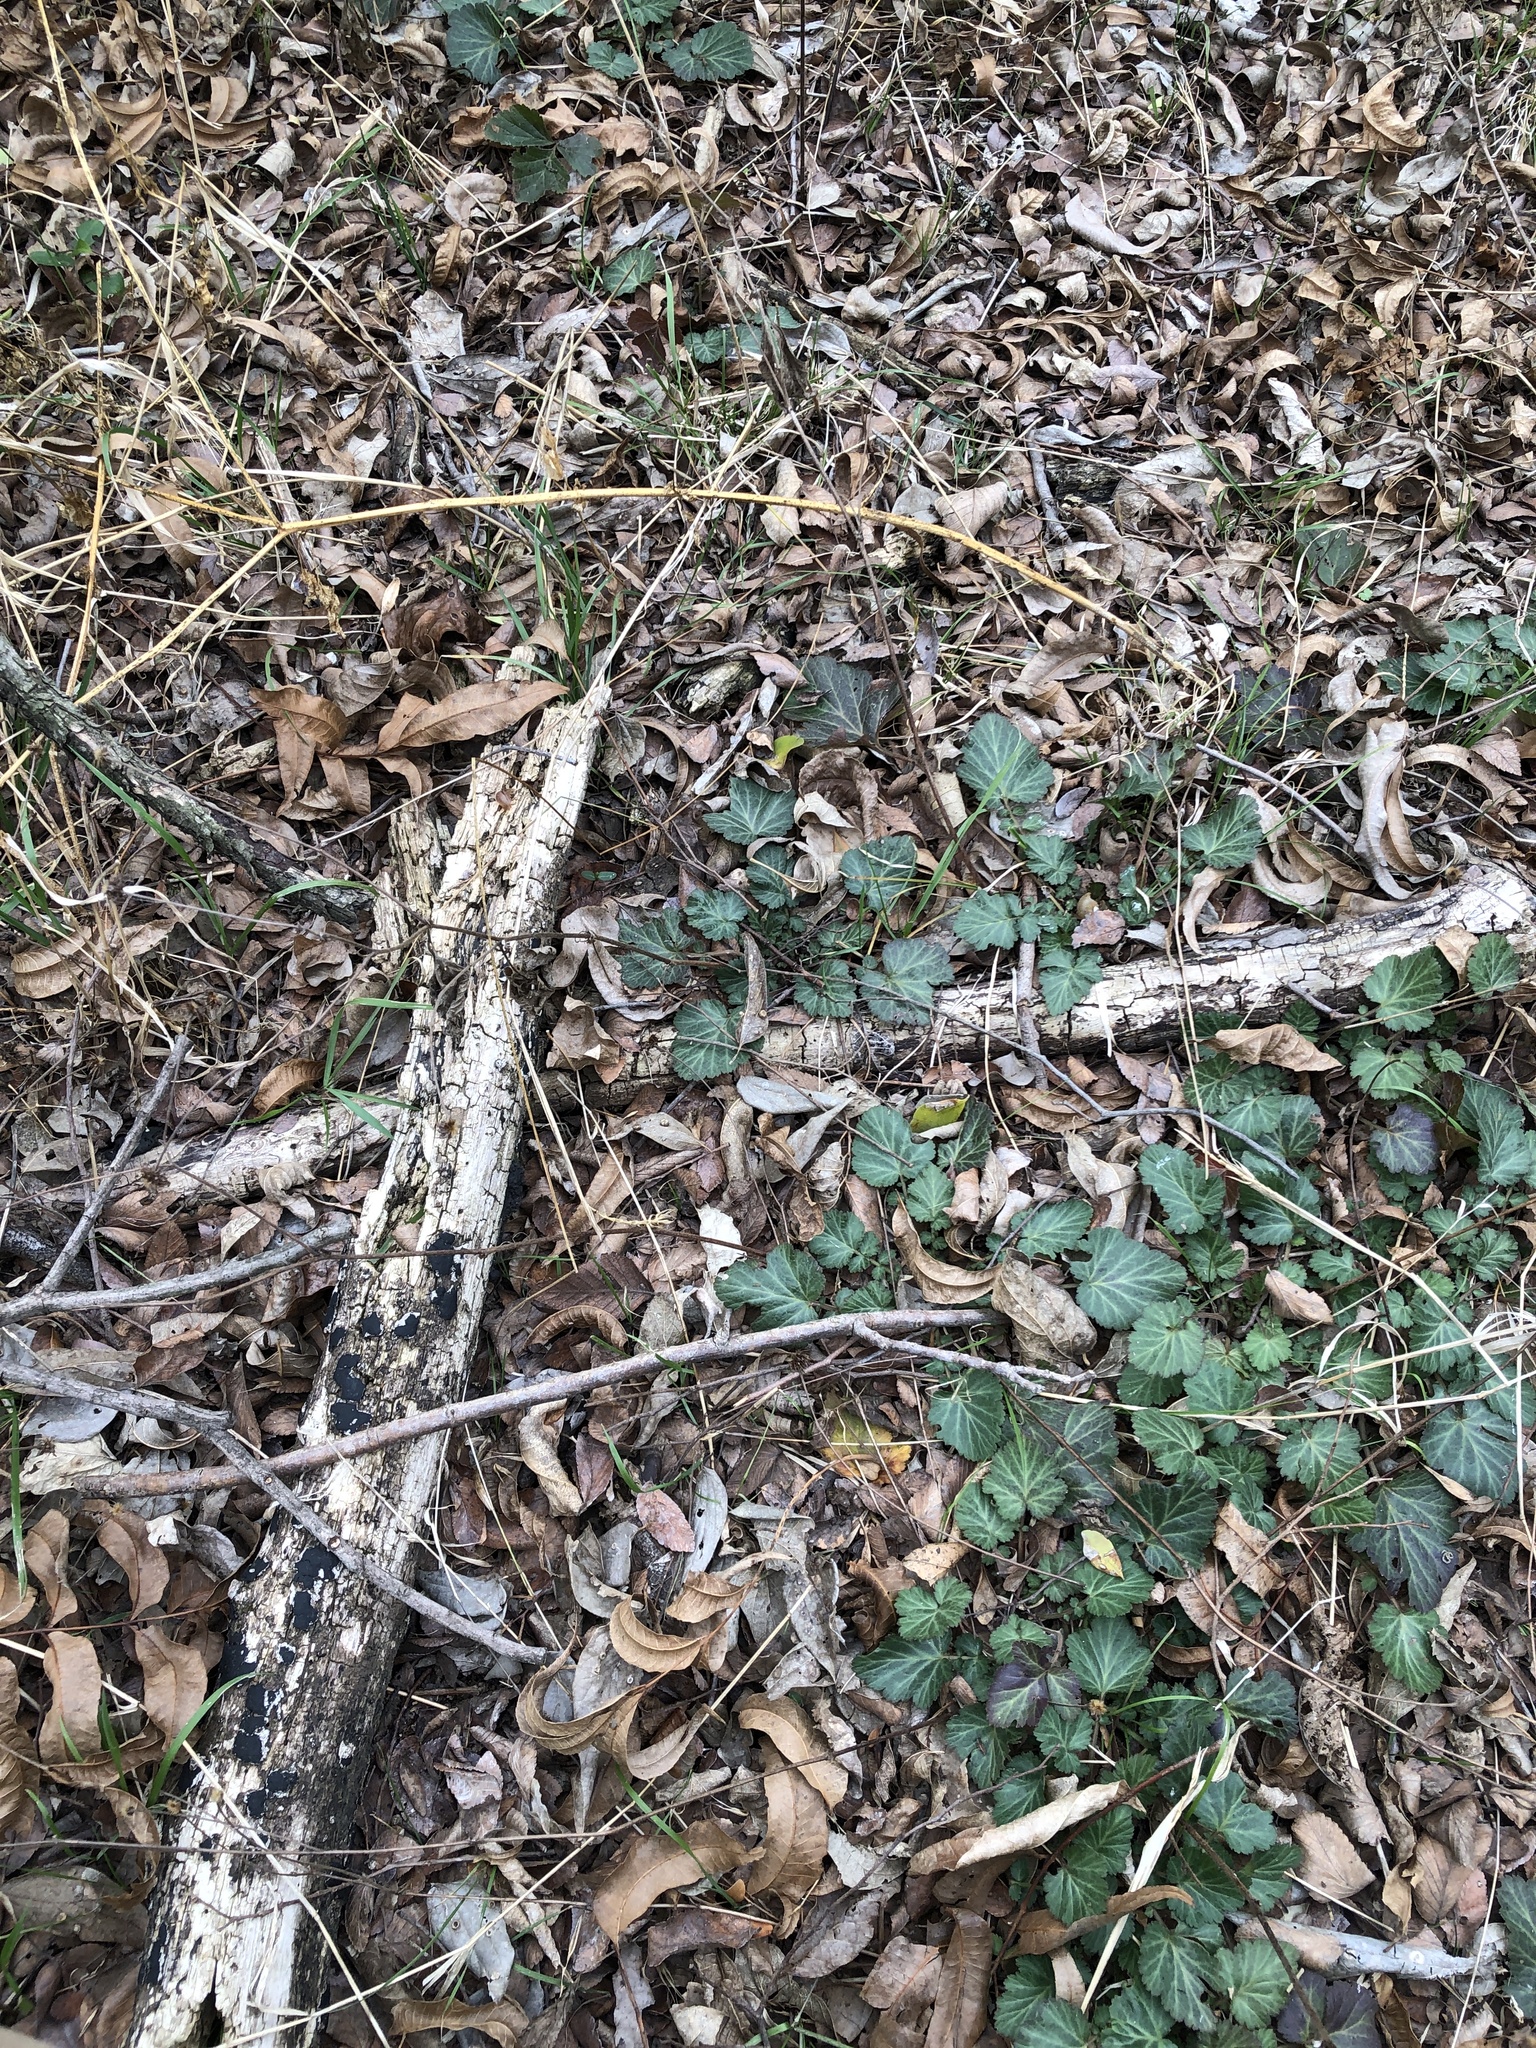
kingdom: Plantae
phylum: Tracheophyta
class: Magnoliopsida
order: Rosales
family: Rosaceae
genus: Geum
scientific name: Geum canadense
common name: White avens
